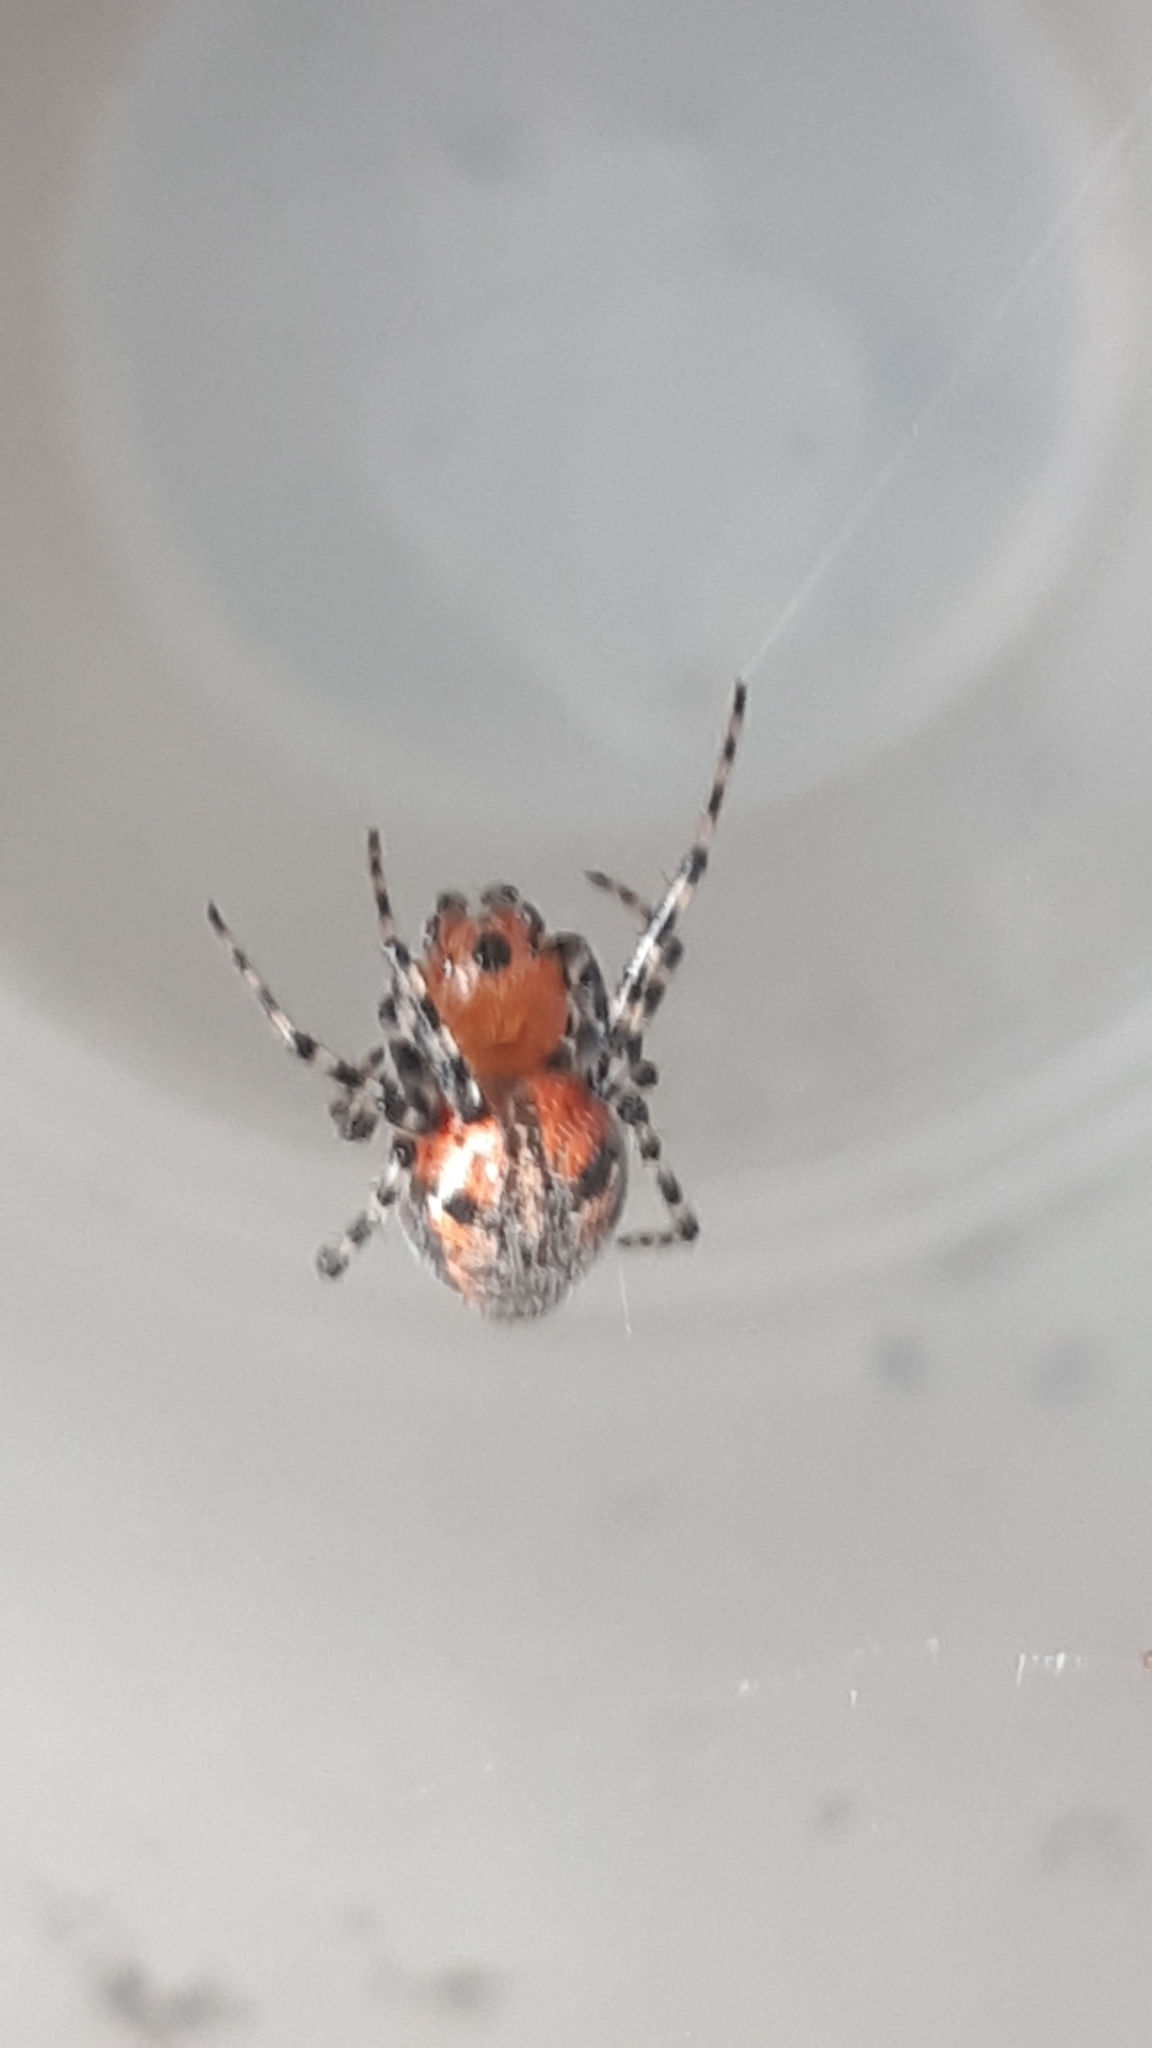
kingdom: Animalia
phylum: Arthropoda
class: Arachnida
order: Araneae
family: Araneidae
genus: Alpaida
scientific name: Alpaida gallardoi
